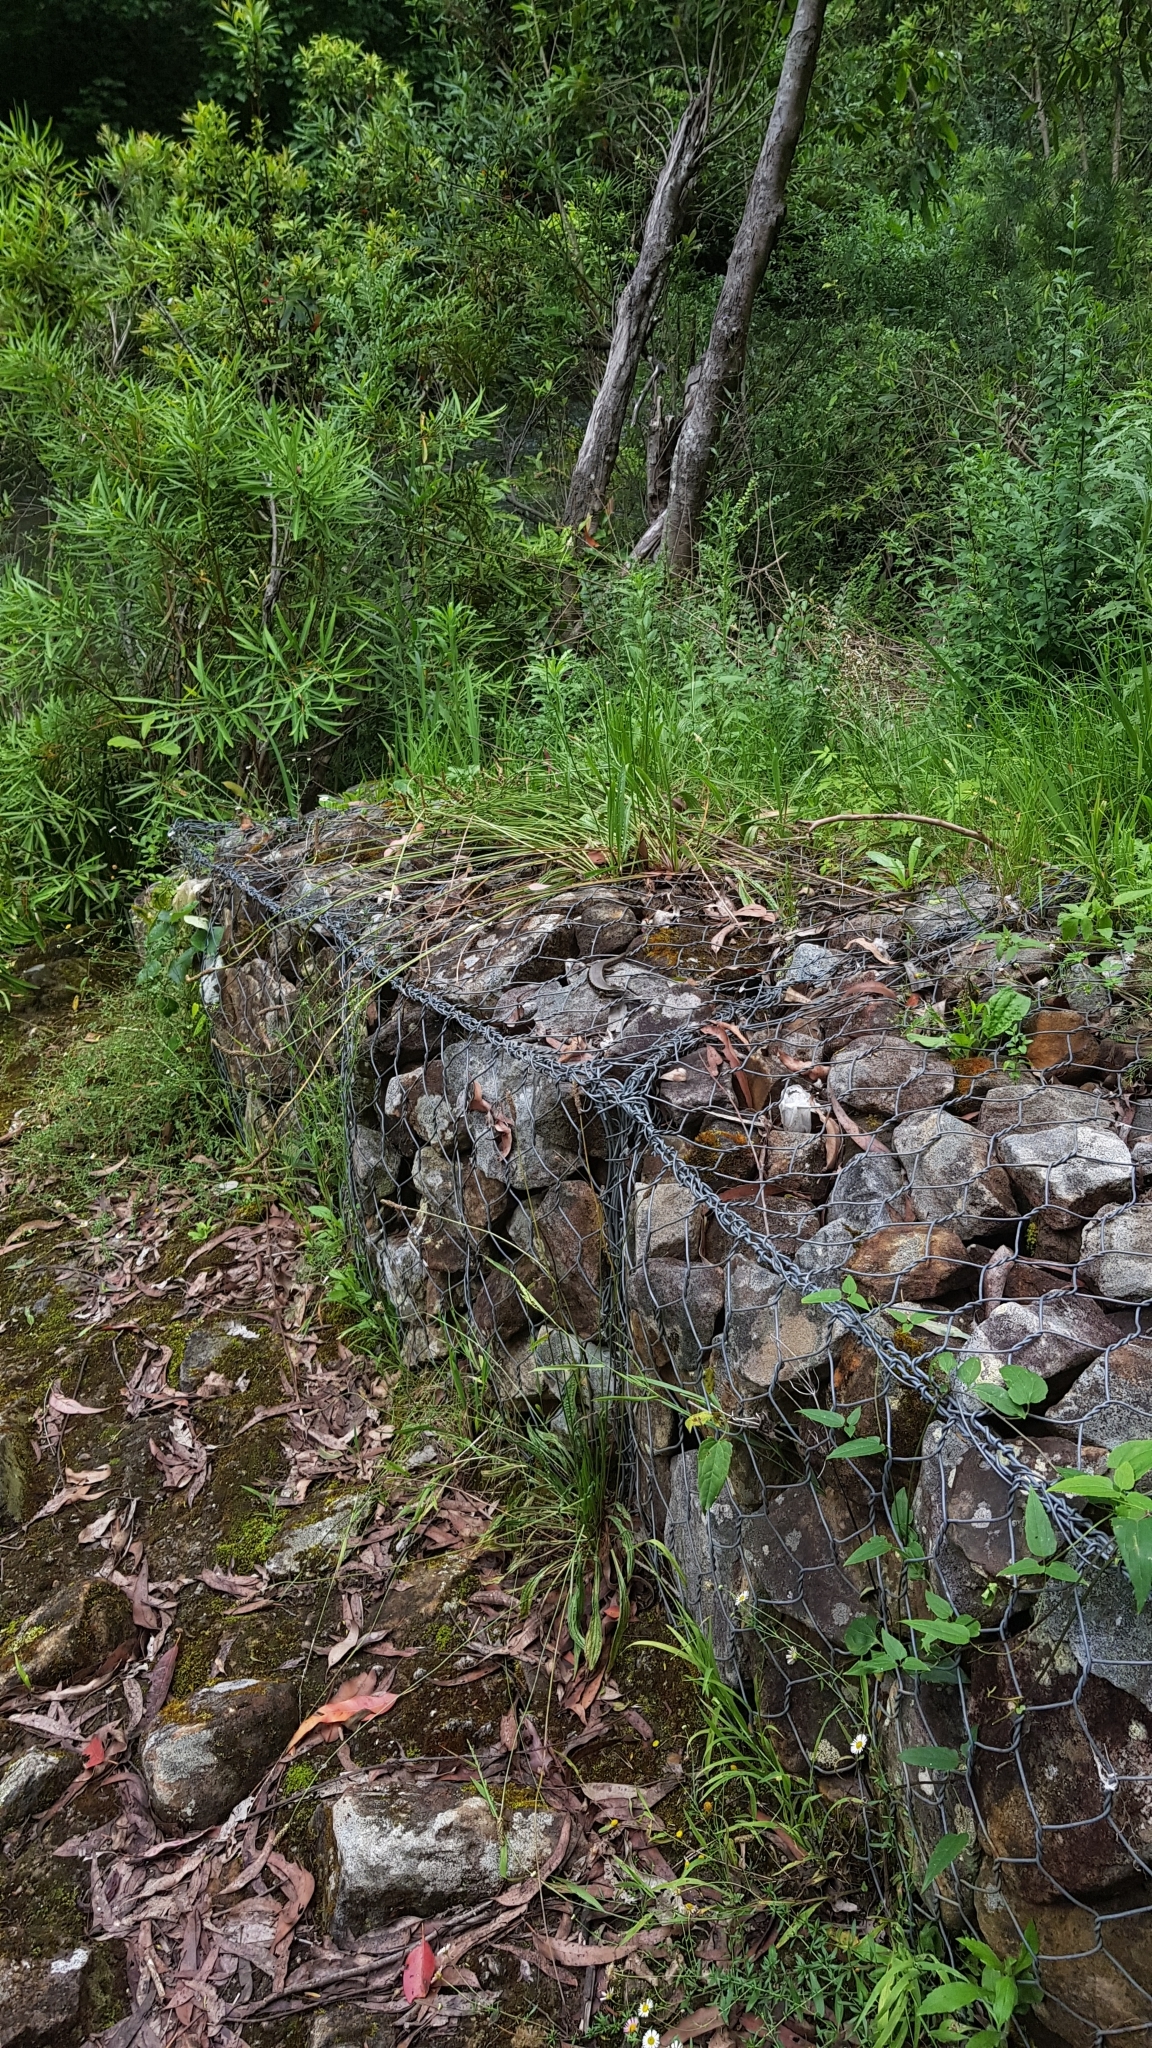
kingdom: Animalia
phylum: Chordata
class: Squamata
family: Scincidae
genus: Eulamprus
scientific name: Eulamprus quoyii
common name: Eastern water skink
